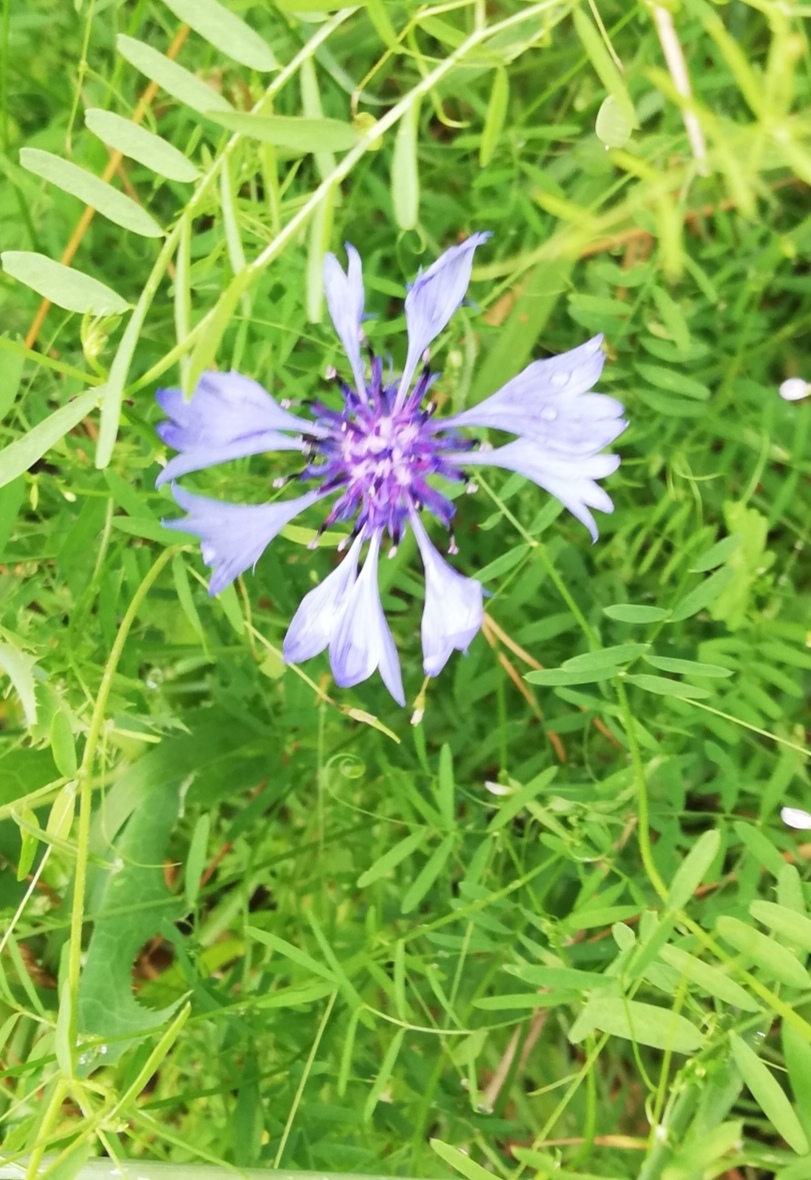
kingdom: Plantae
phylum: Tracheophyta
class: Magnoliopsida
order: Asterales
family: Asteraceae
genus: Centaurea
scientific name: Centaurea cyanus
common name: Cornflower
